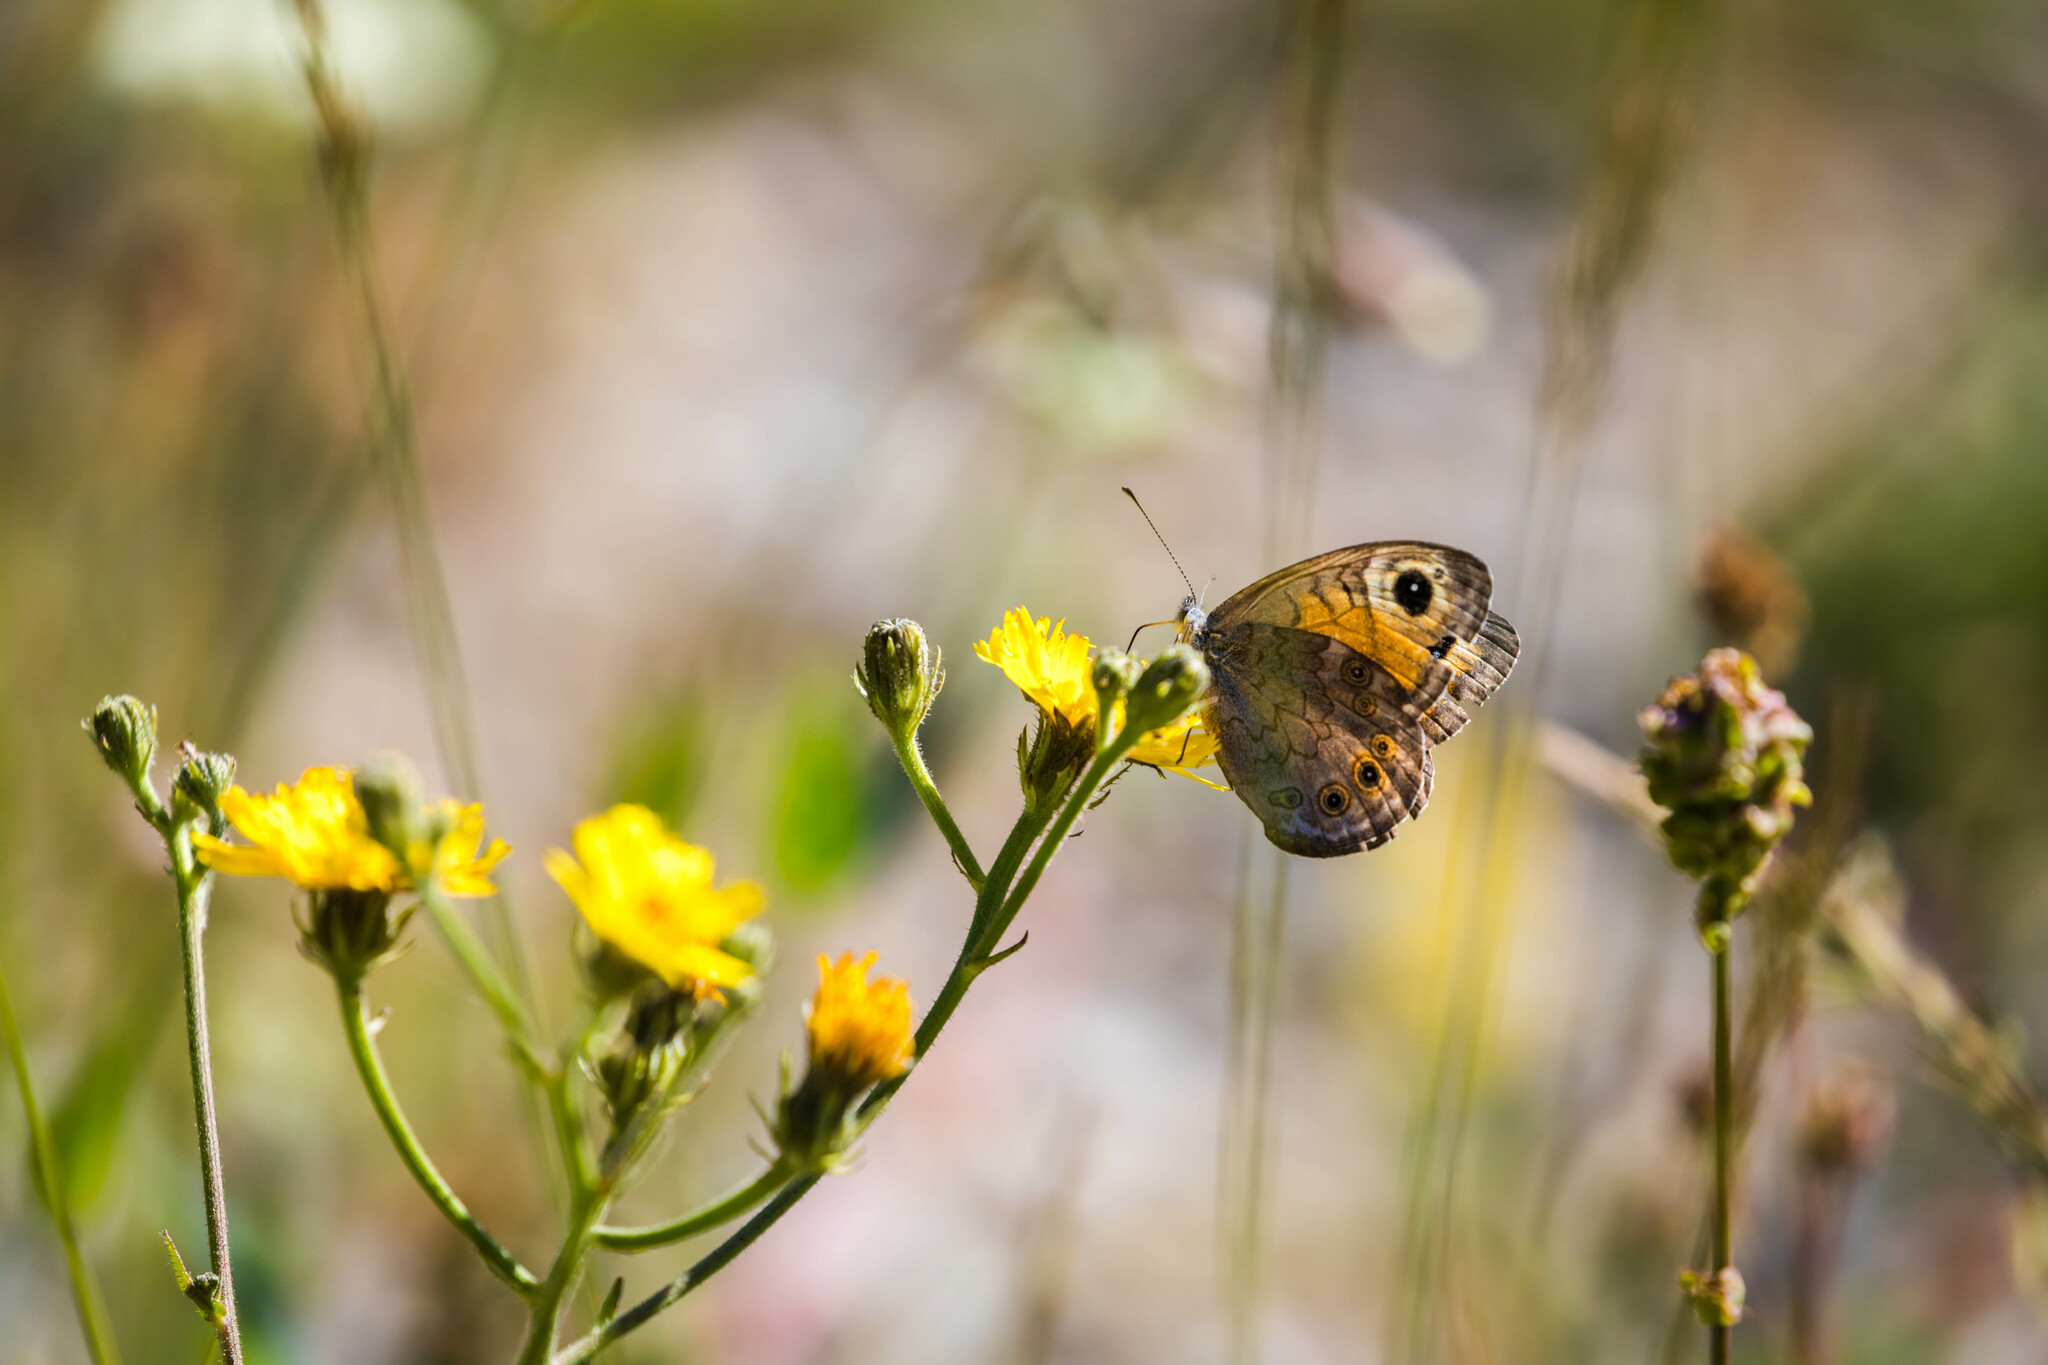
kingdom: Animalia
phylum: Arthropoda
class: Insecta
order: Lepidoptera
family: Nymphalidae
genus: Pararge
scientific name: Pararge Lasiommata maera
